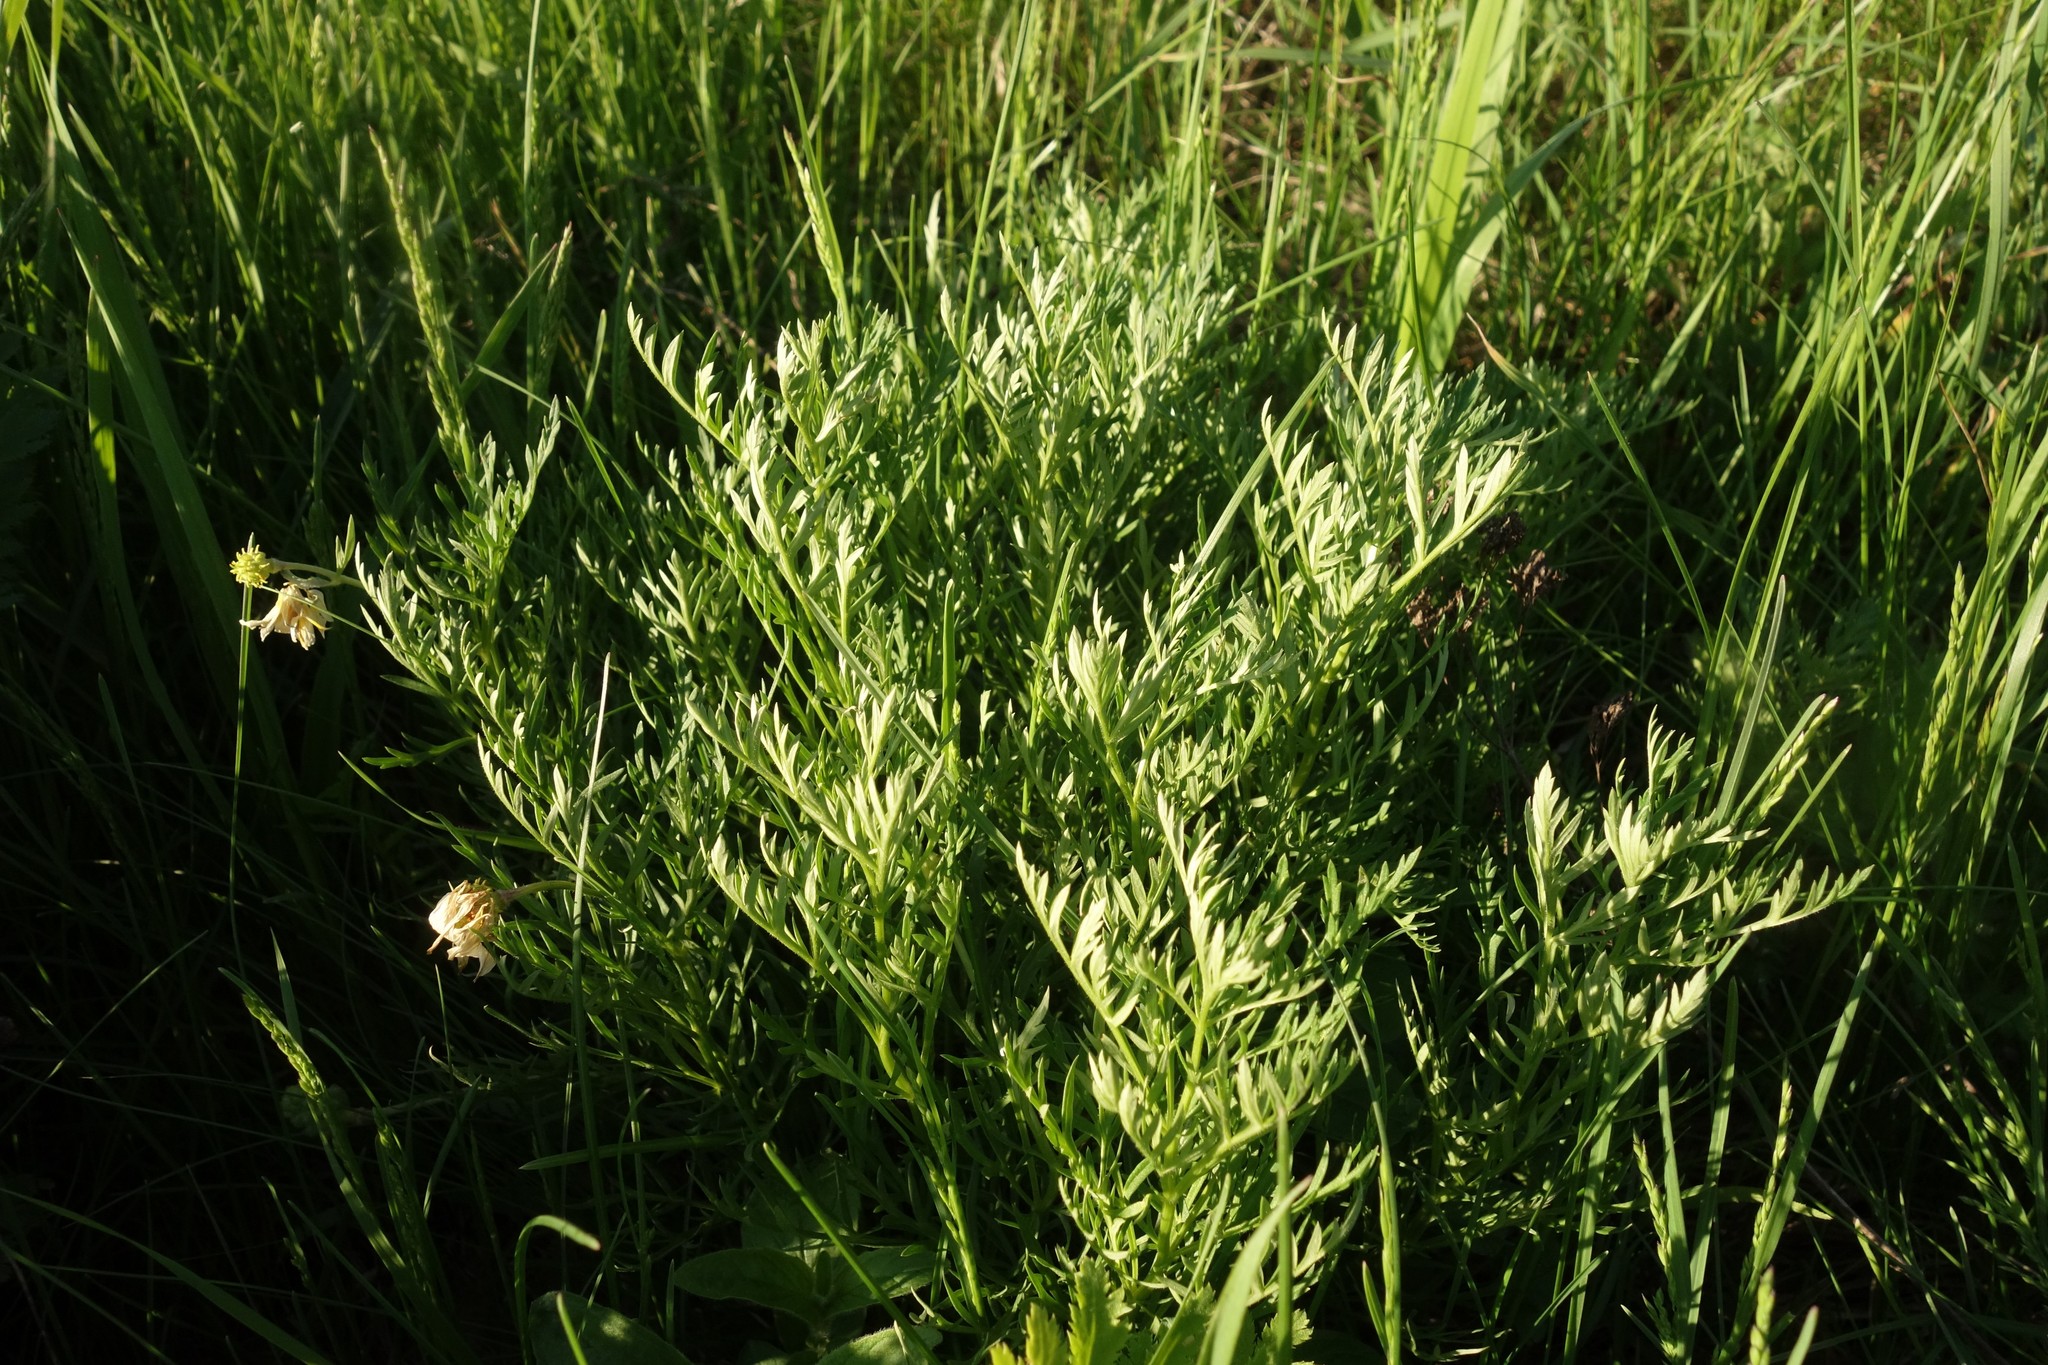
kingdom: Plantae
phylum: Tracheophyta
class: Magnoliopsida
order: Ranunculales
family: Ranunculaceae
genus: Adonis
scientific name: Adonis volgensis
